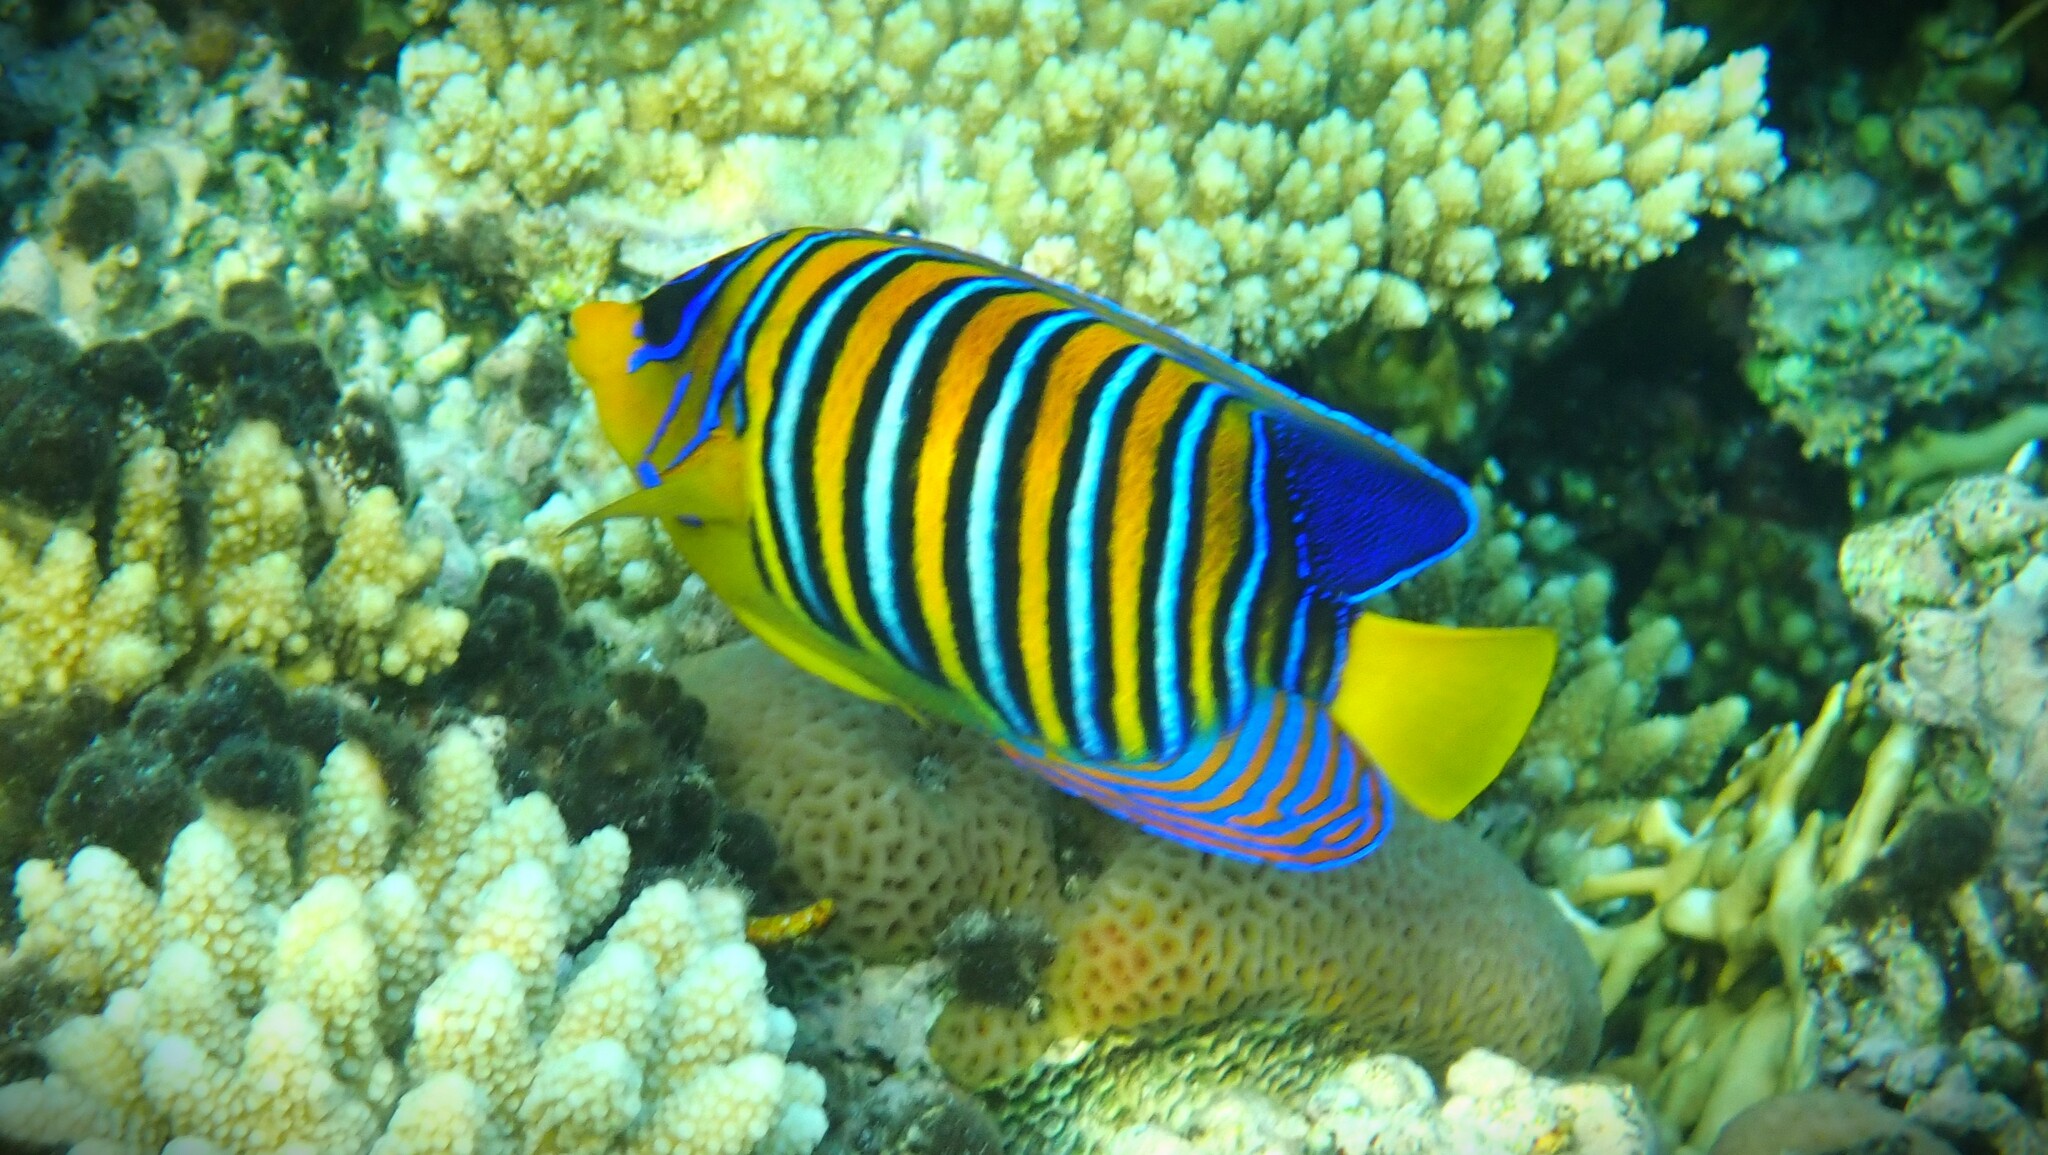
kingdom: Animalia
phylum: Chordata
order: Perciformes
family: Pomacanthidae
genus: Pygoplites
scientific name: Pygoplites diacanthus
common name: Regal angelfish
